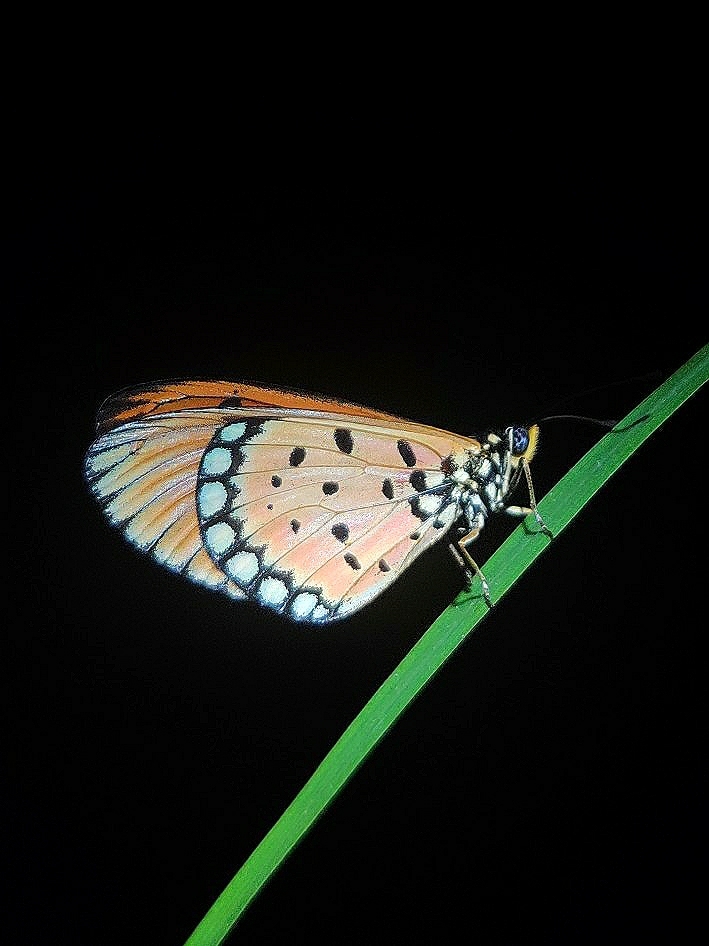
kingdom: Animalia
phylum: Arthropoda
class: Insecta
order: Lepidoptera
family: Nymphalidae
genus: Acraea
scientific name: Acraea terpsicore
